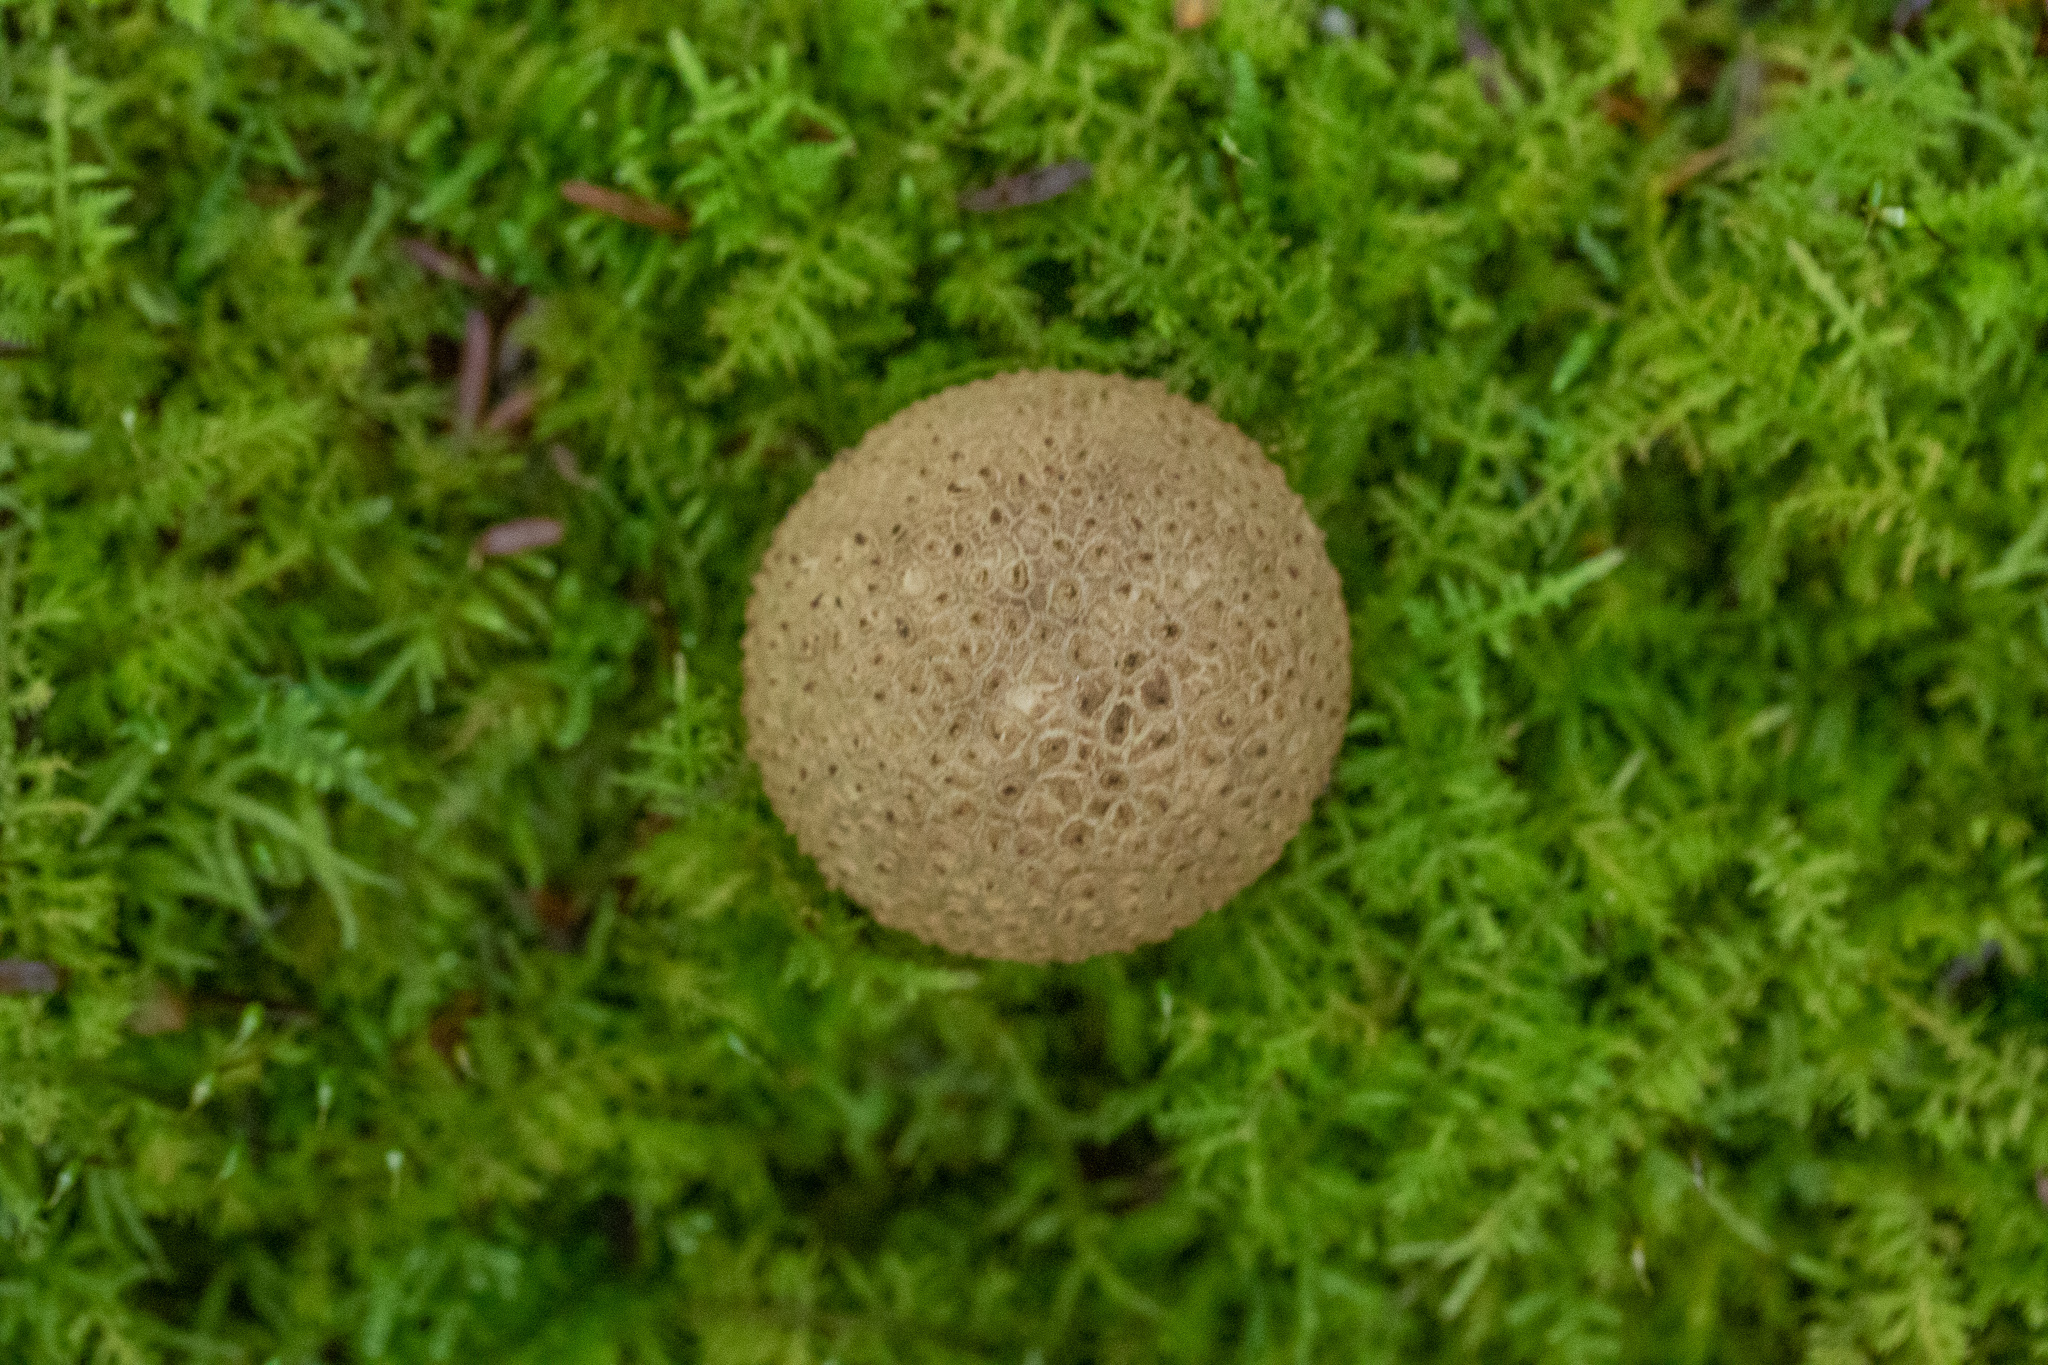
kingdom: Fungi
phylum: Basidiomycota
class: Agaricomycetes
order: Boletales
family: Sclerodermataceae
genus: Scleroderma
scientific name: Scleroderma citrinum
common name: Common earthball
